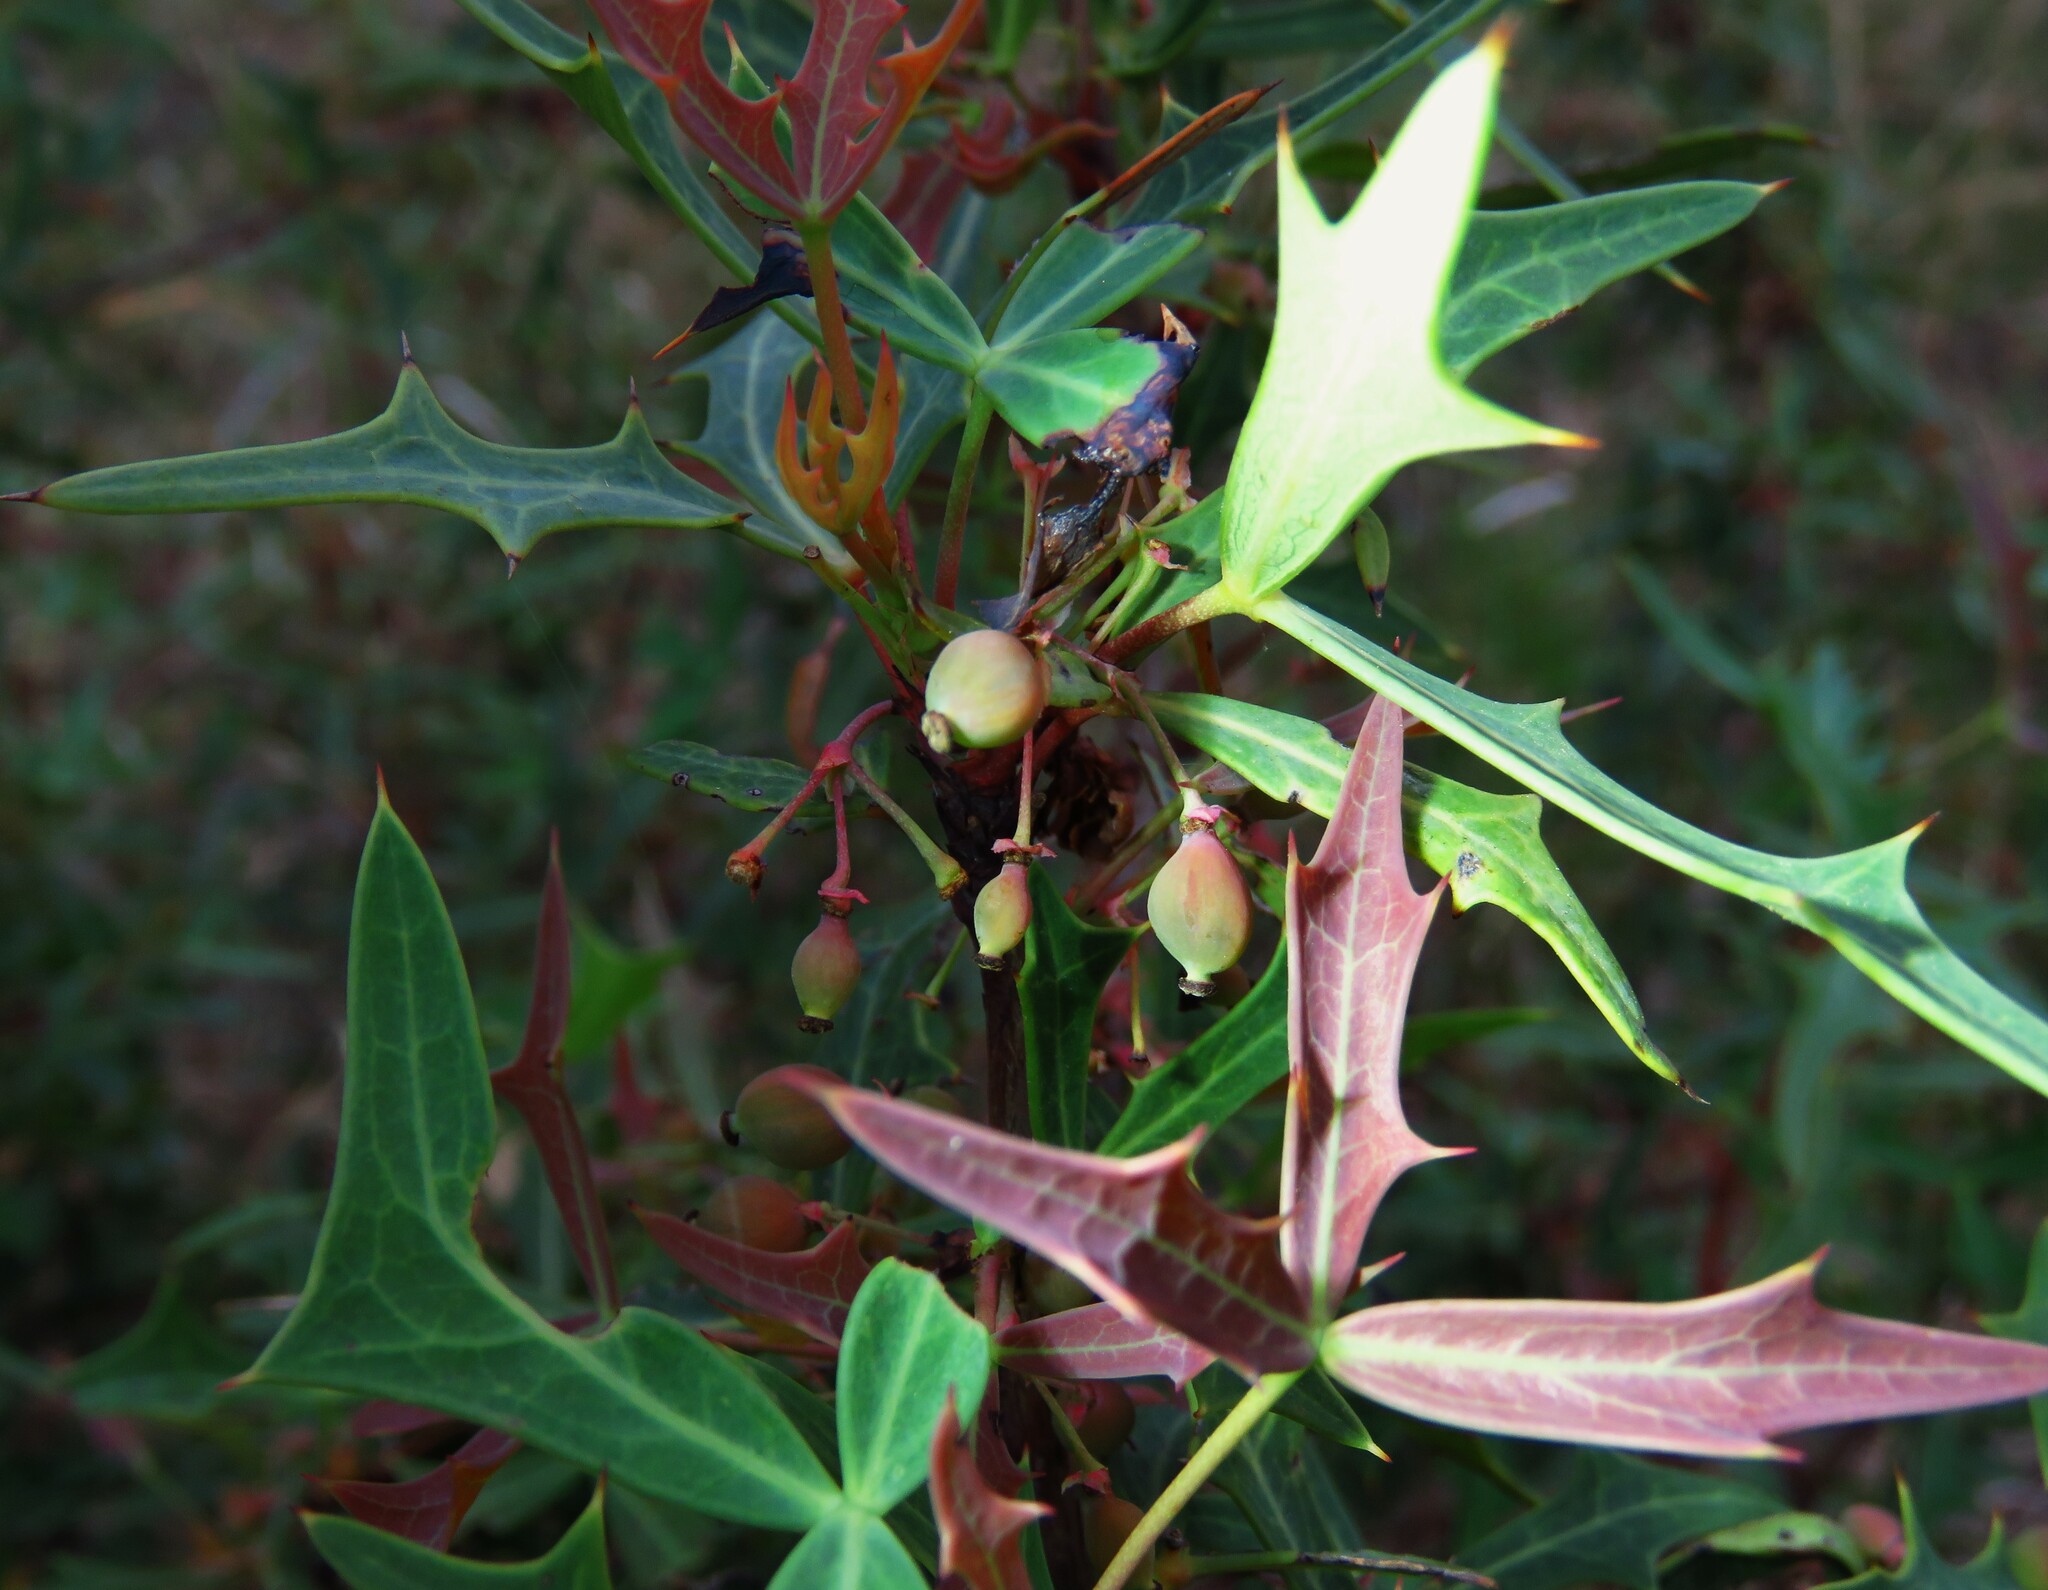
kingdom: Plantae
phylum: Tracheophyta
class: Magnoliopsida
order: Ranunculales
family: Berberidaceae
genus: Alloberberis
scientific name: Alloberberis trifoliolata
